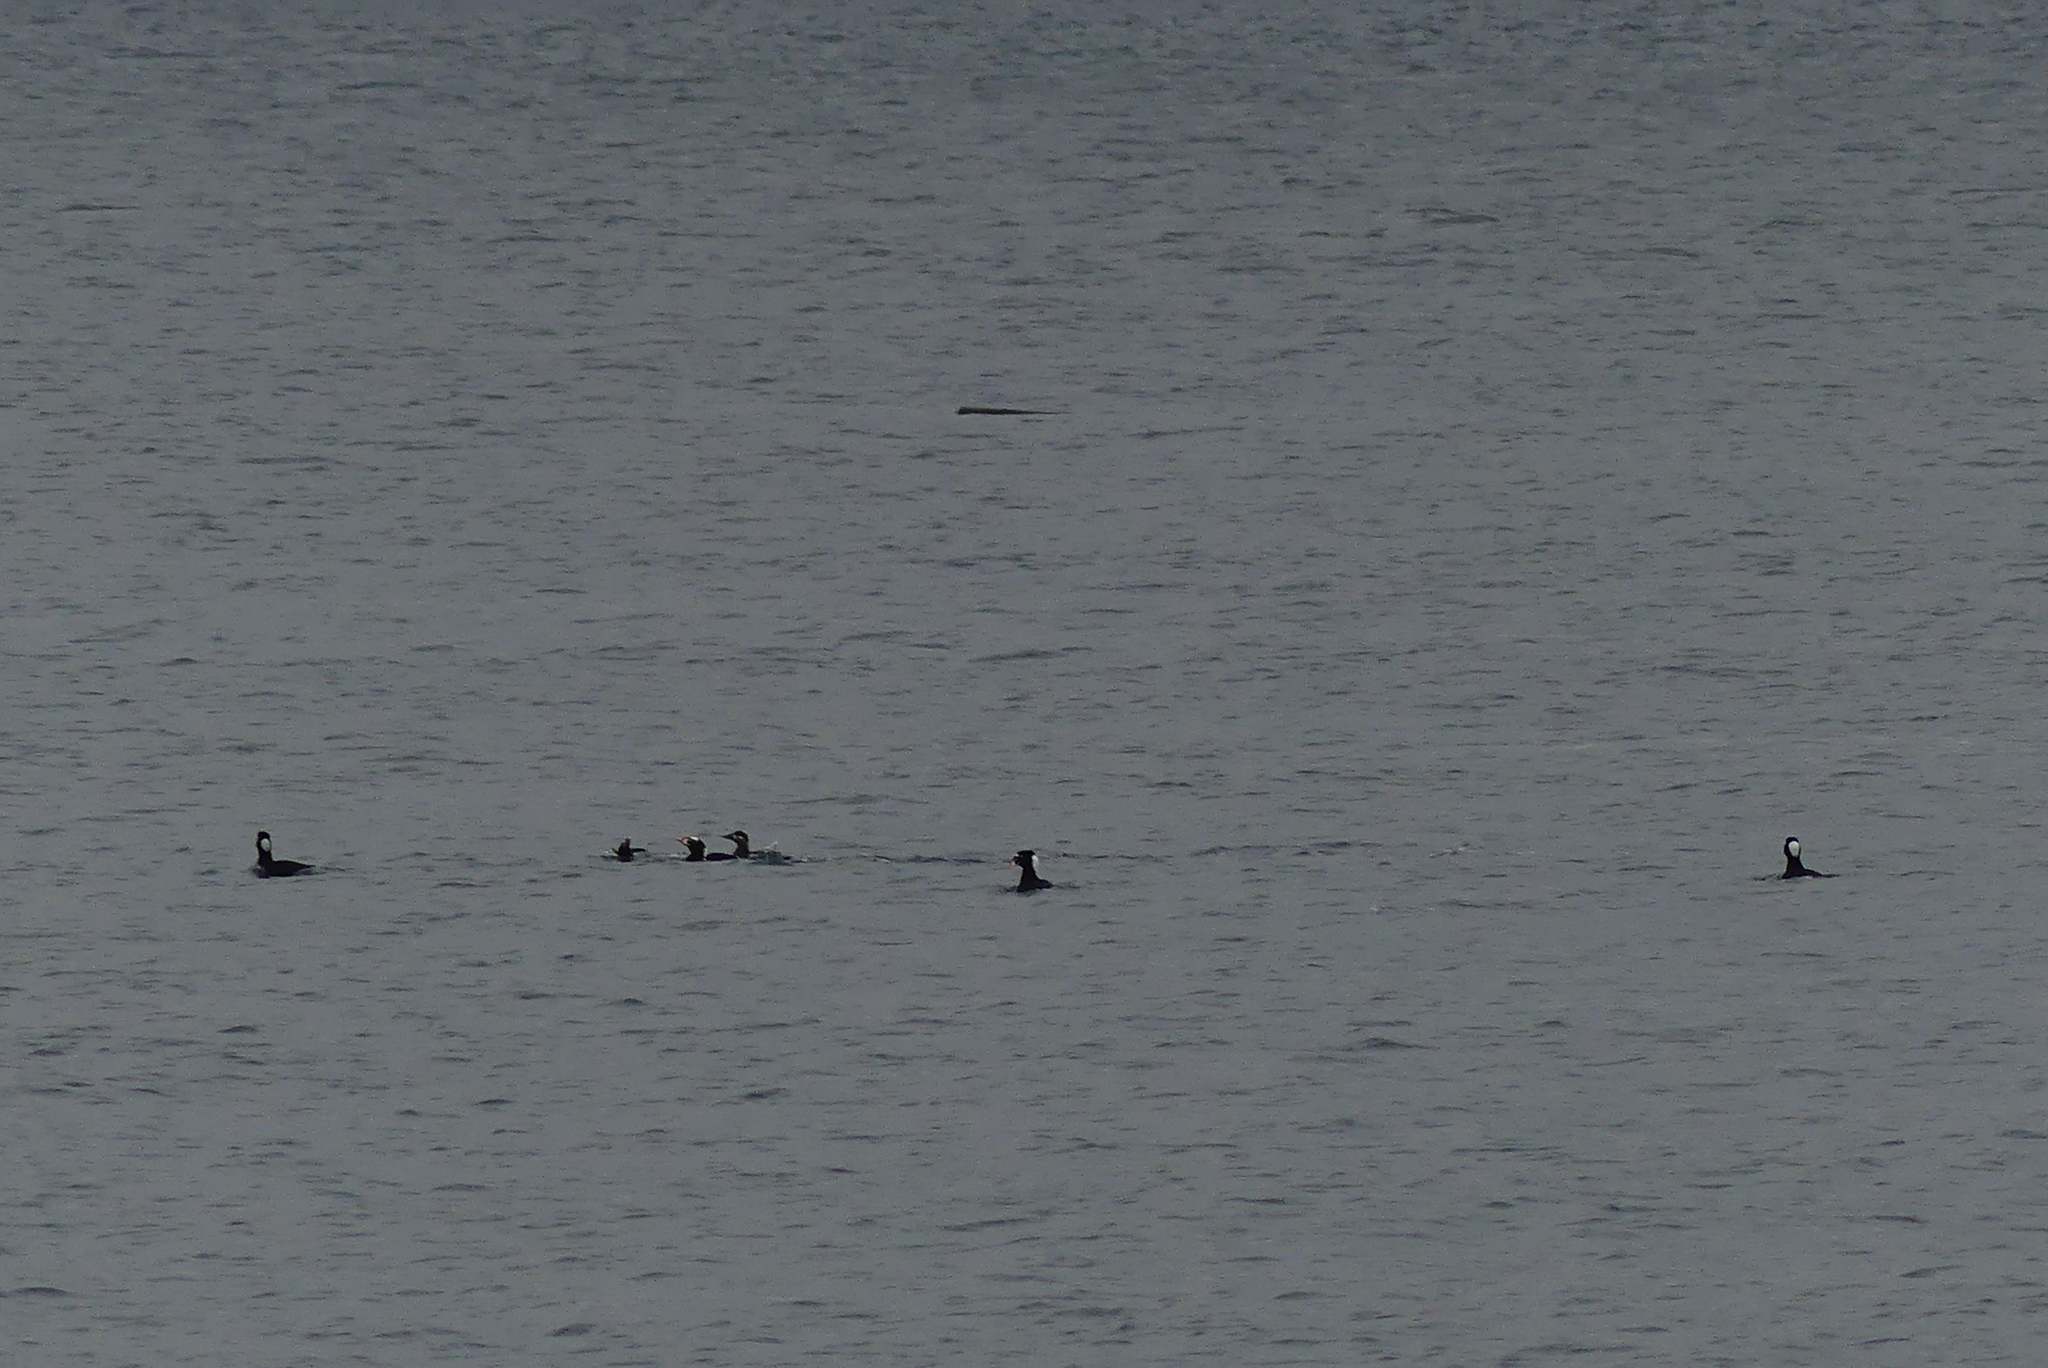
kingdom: Animalia
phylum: Chordata
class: Aves
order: Anseriformes
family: Anatidae
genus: Melanitta
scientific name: Melanitta perspicillata
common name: Surf scoter
